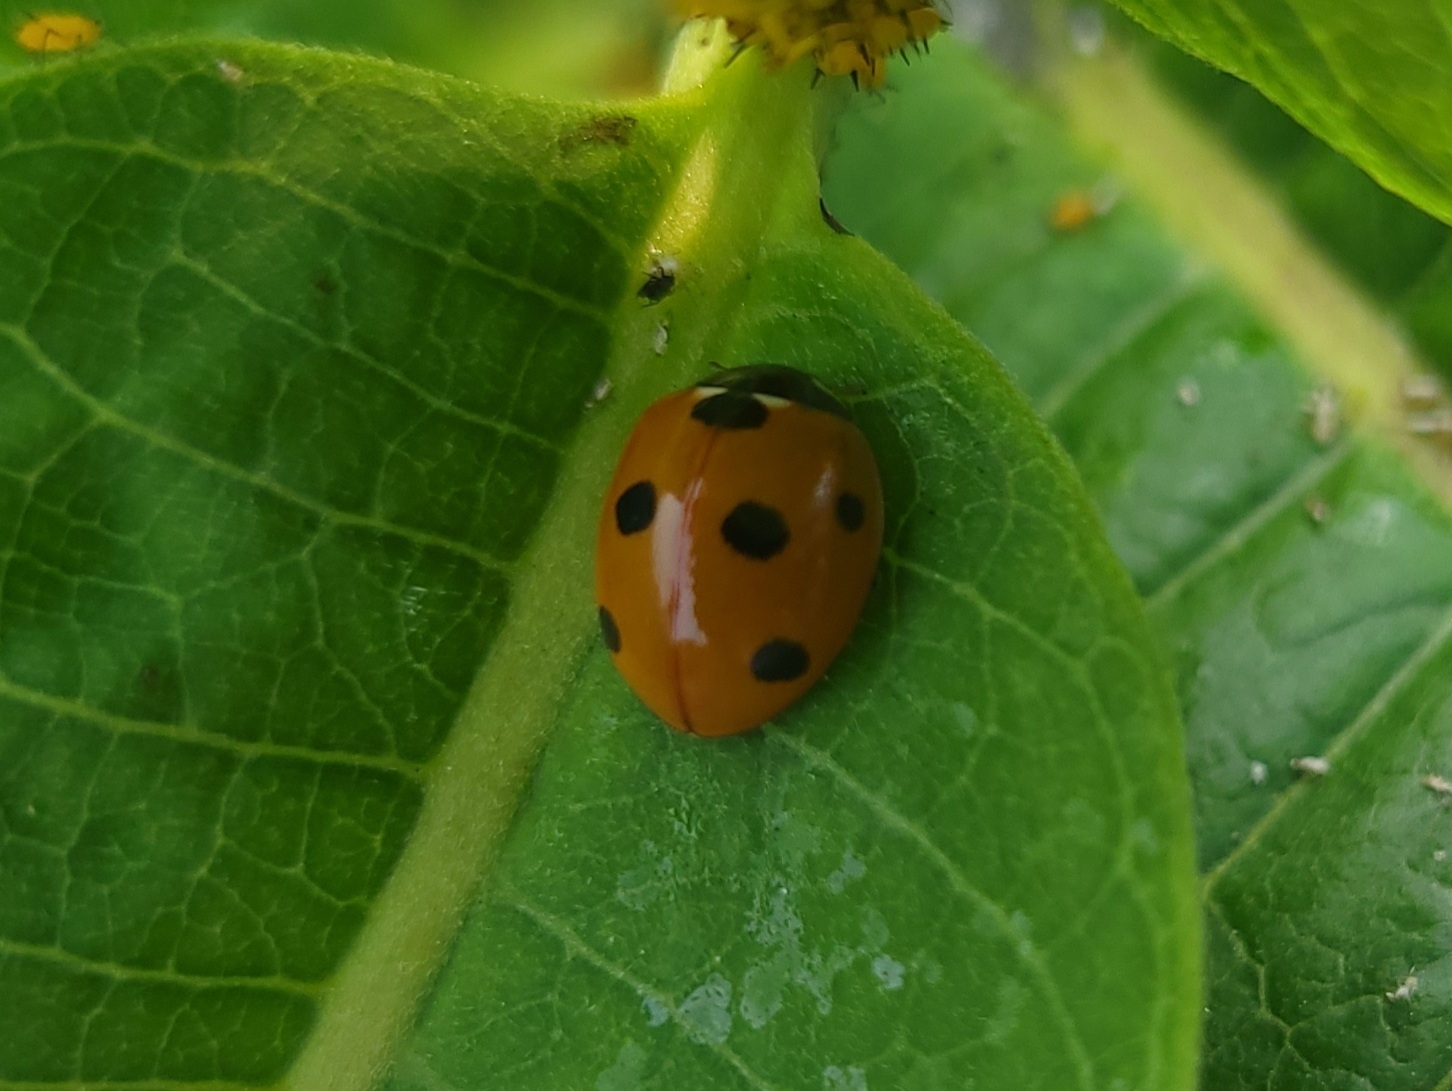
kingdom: Animalia
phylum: Arthropoda
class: Insecta
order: Coleoptera
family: Coccinellidae
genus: Coccinella
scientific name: Coccinella septempunctata
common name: Sevenspotted lady beetle
